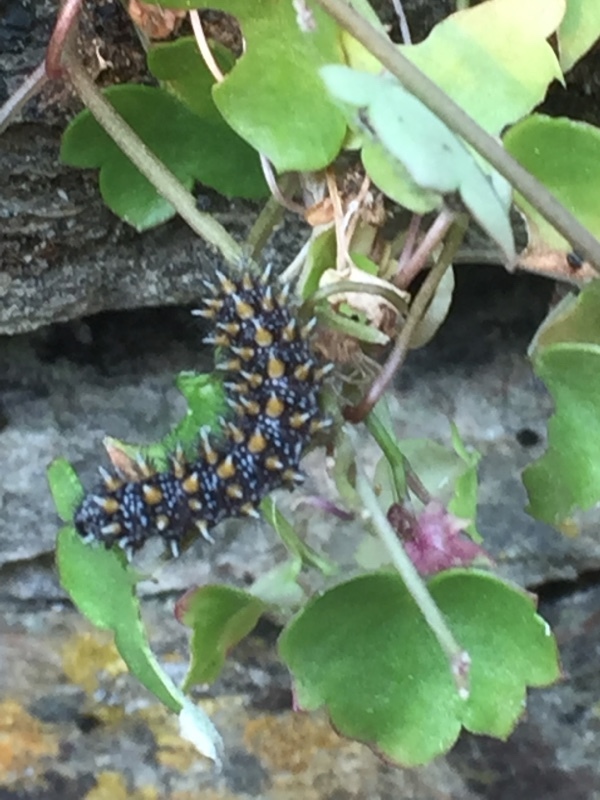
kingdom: Plantae
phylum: Tracheophyta
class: Magnoliopsida
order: Lamiales
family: Plantaginaceae
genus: Cymbalaria
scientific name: Cymbalaria muralis
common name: Ivy-leaved toadflax
